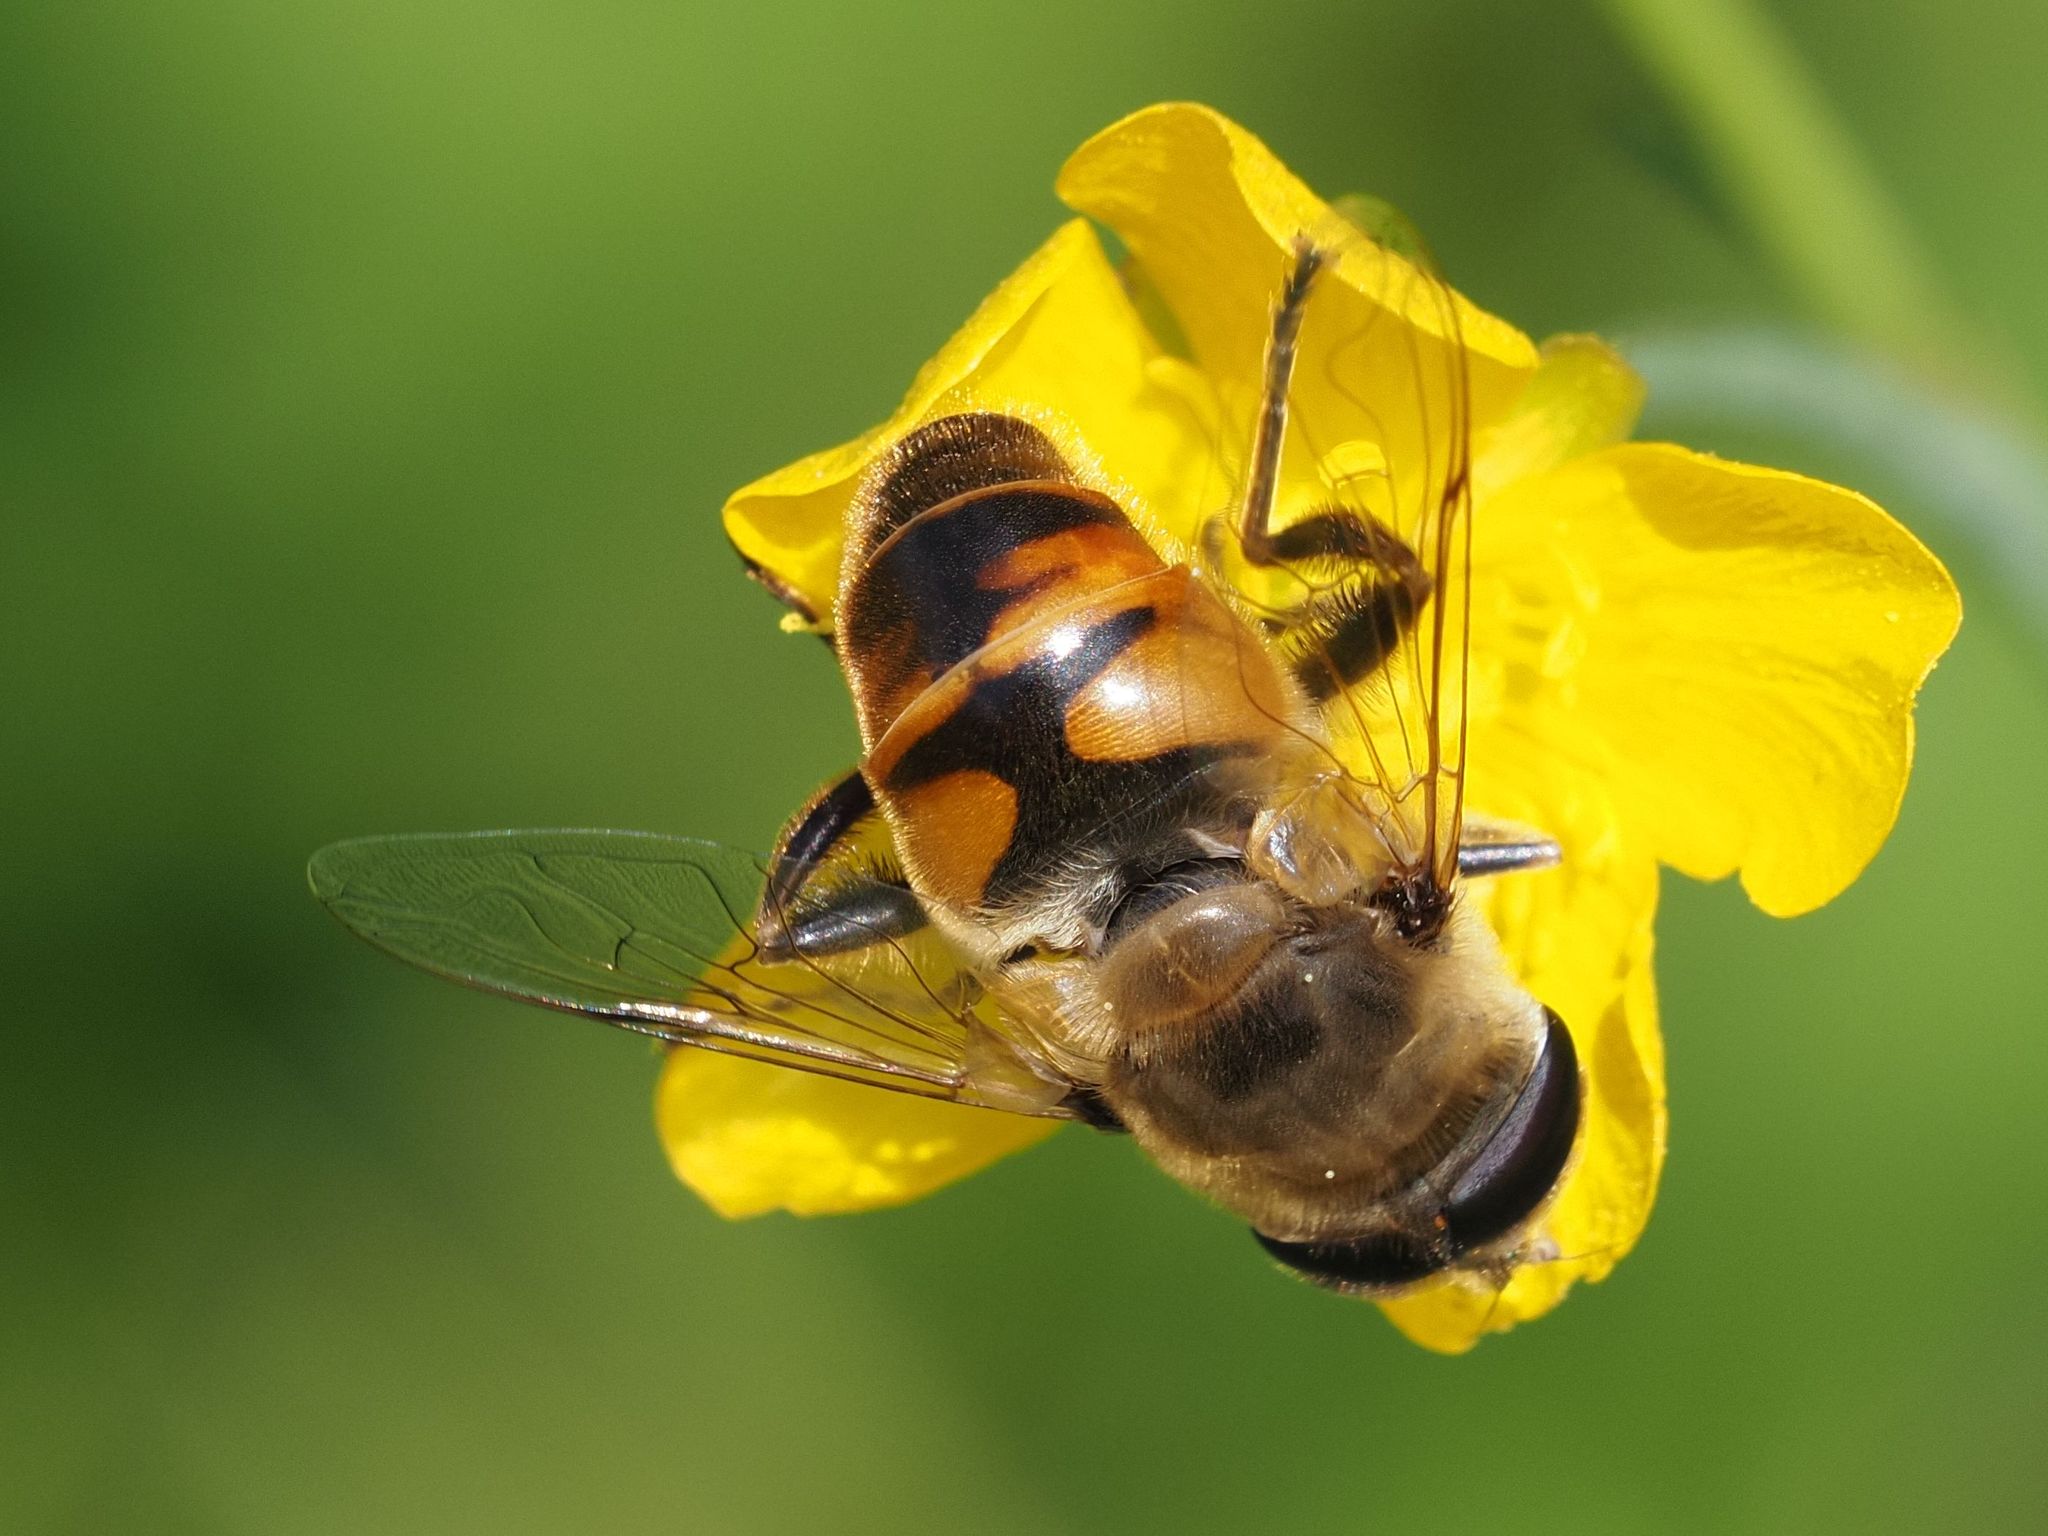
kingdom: Animalia
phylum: Arthropoda
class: Insecta
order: Diptera
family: Syrphidae
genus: Eristalis
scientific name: Eristalis tenax
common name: Drone fly
